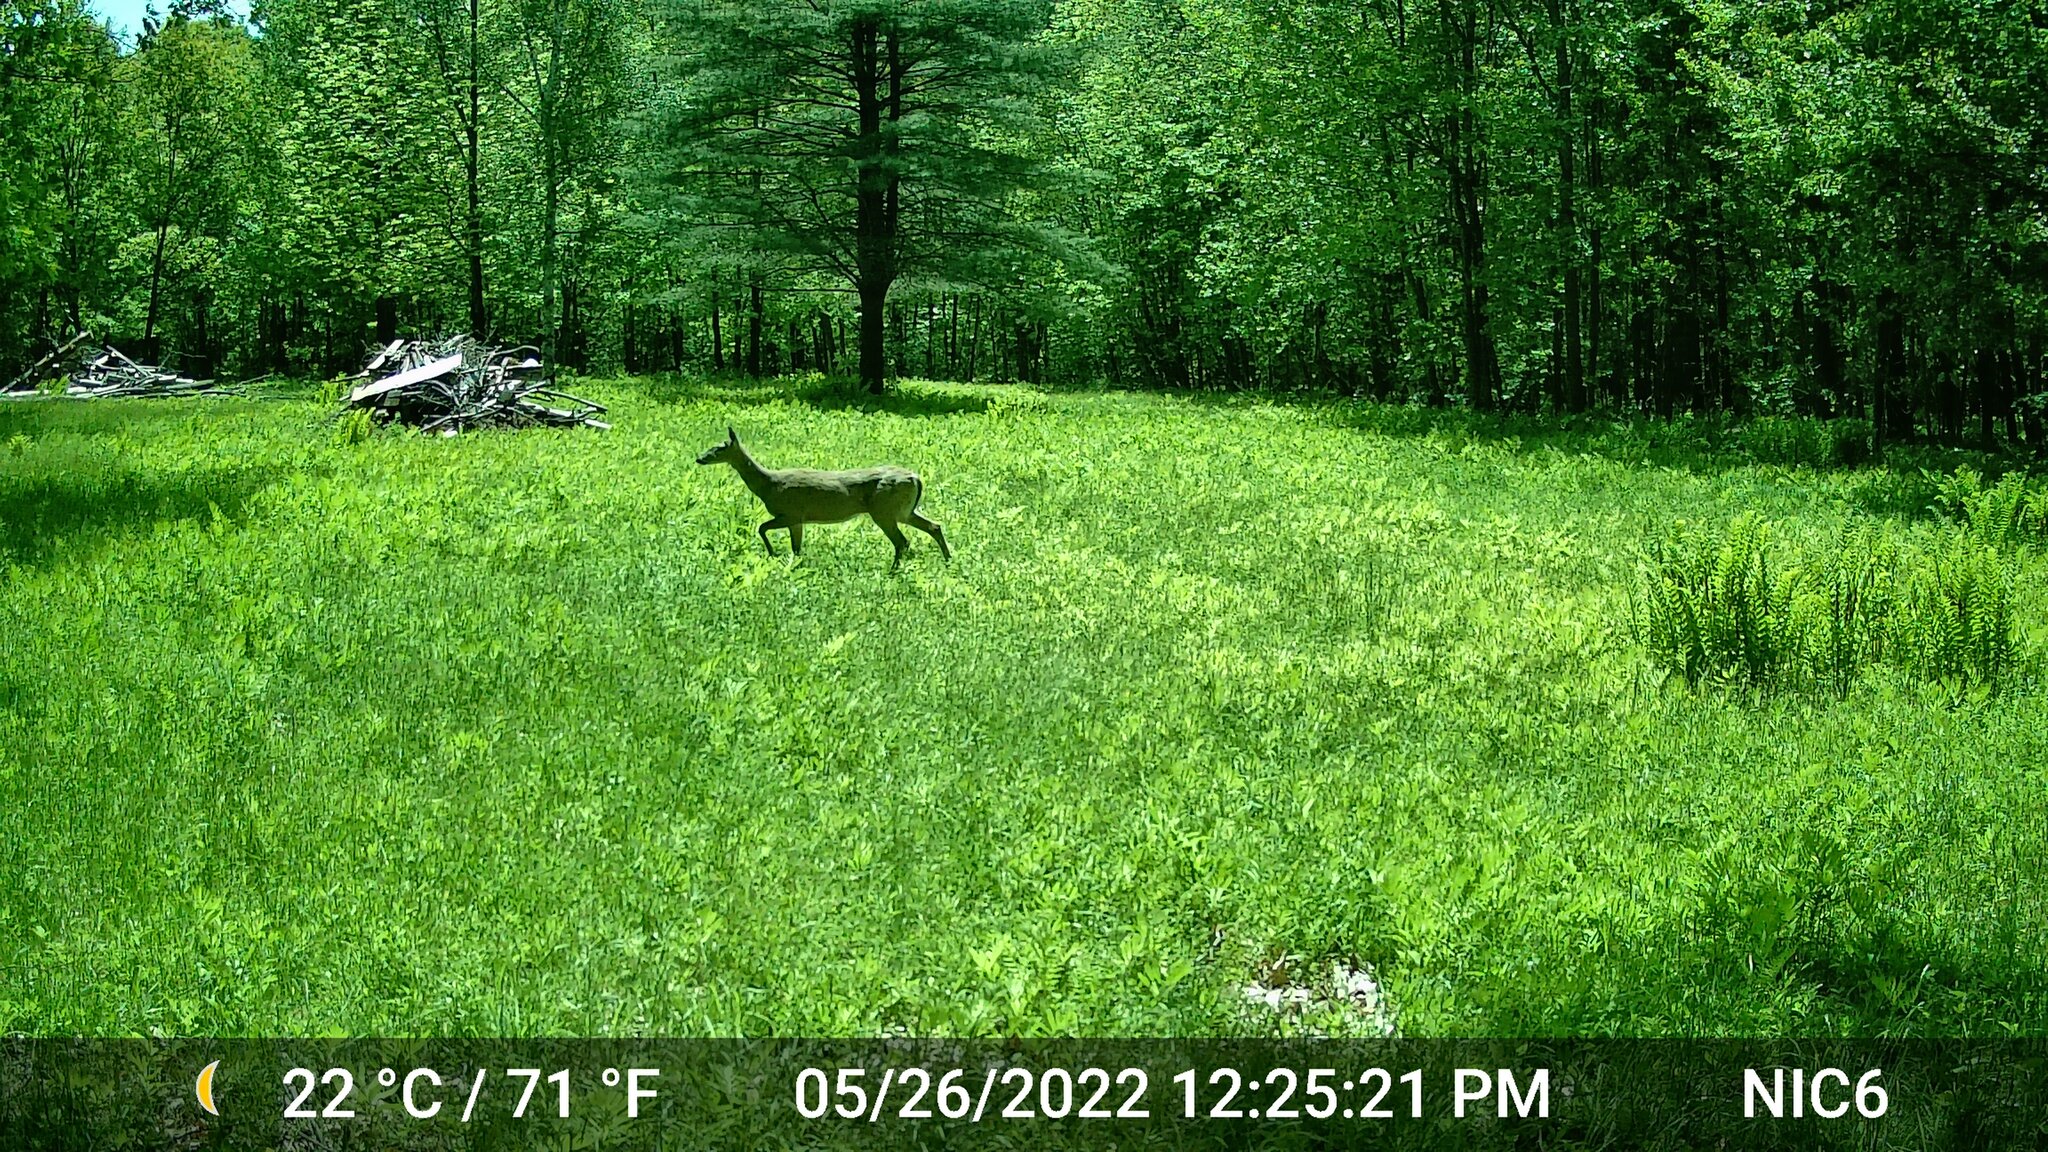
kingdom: Animalia
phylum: Chordata
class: Mammalia
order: Artiodactyla
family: Cervidae
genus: Odocoileus
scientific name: Odocoileus virginianus
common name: White-tailed deer
